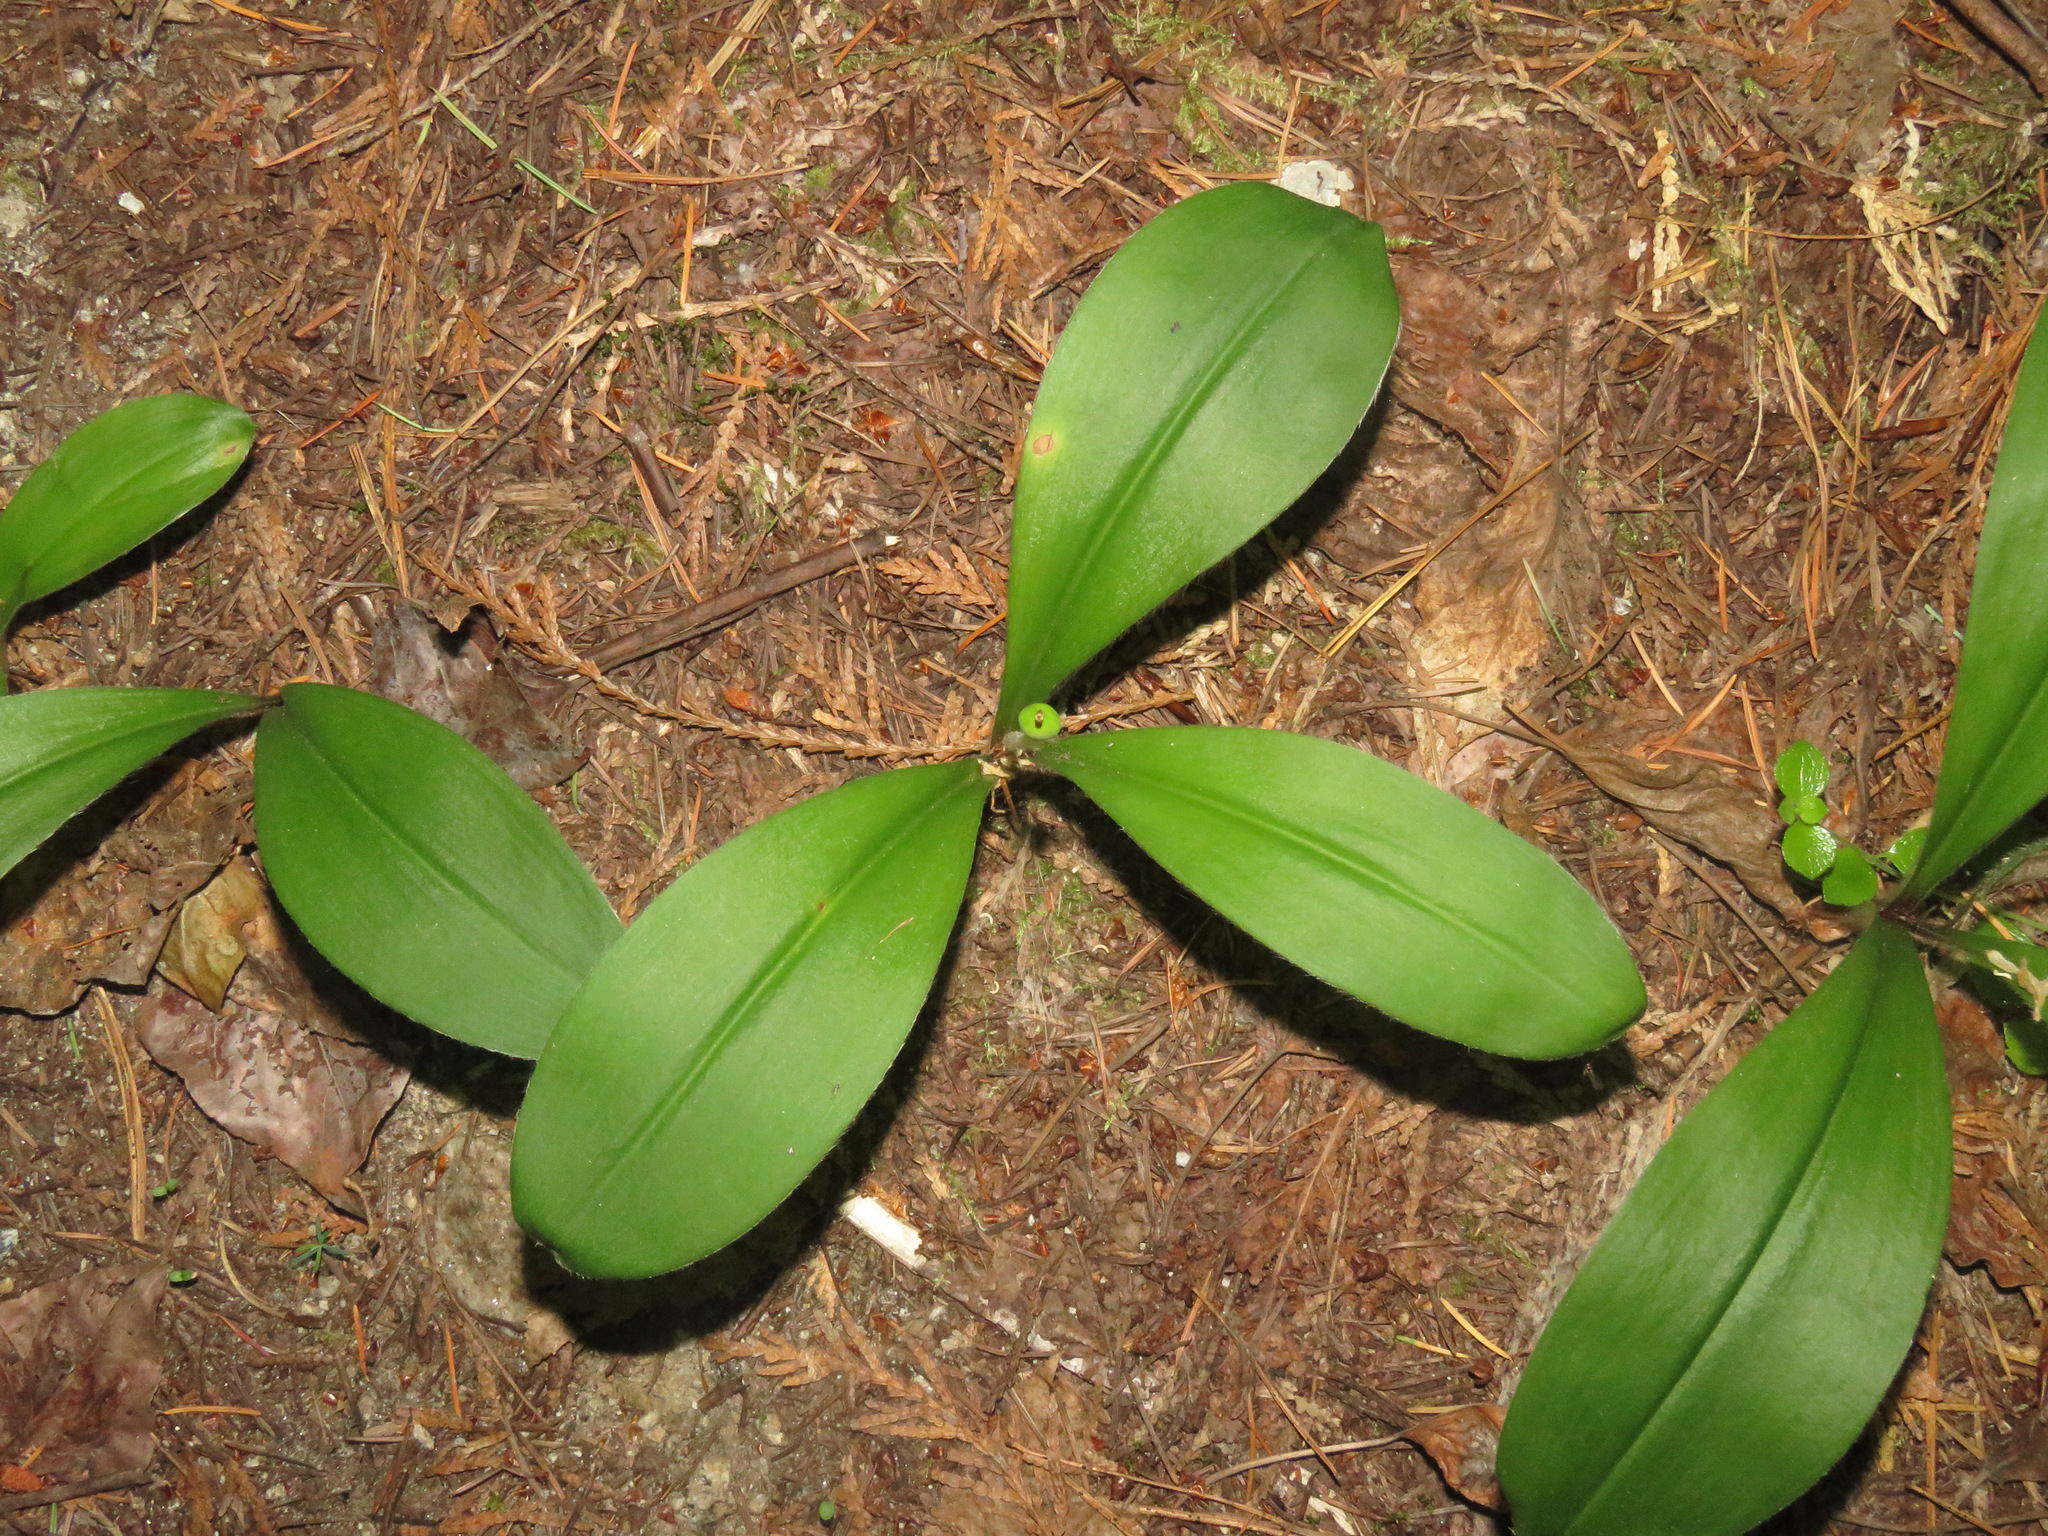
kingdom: Plantae
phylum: Tracheophyta
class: Liliopsida
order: Liliales
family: Liliaceae
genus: Clintonia
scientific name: Clintonia uniflora
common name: Queen's cup
